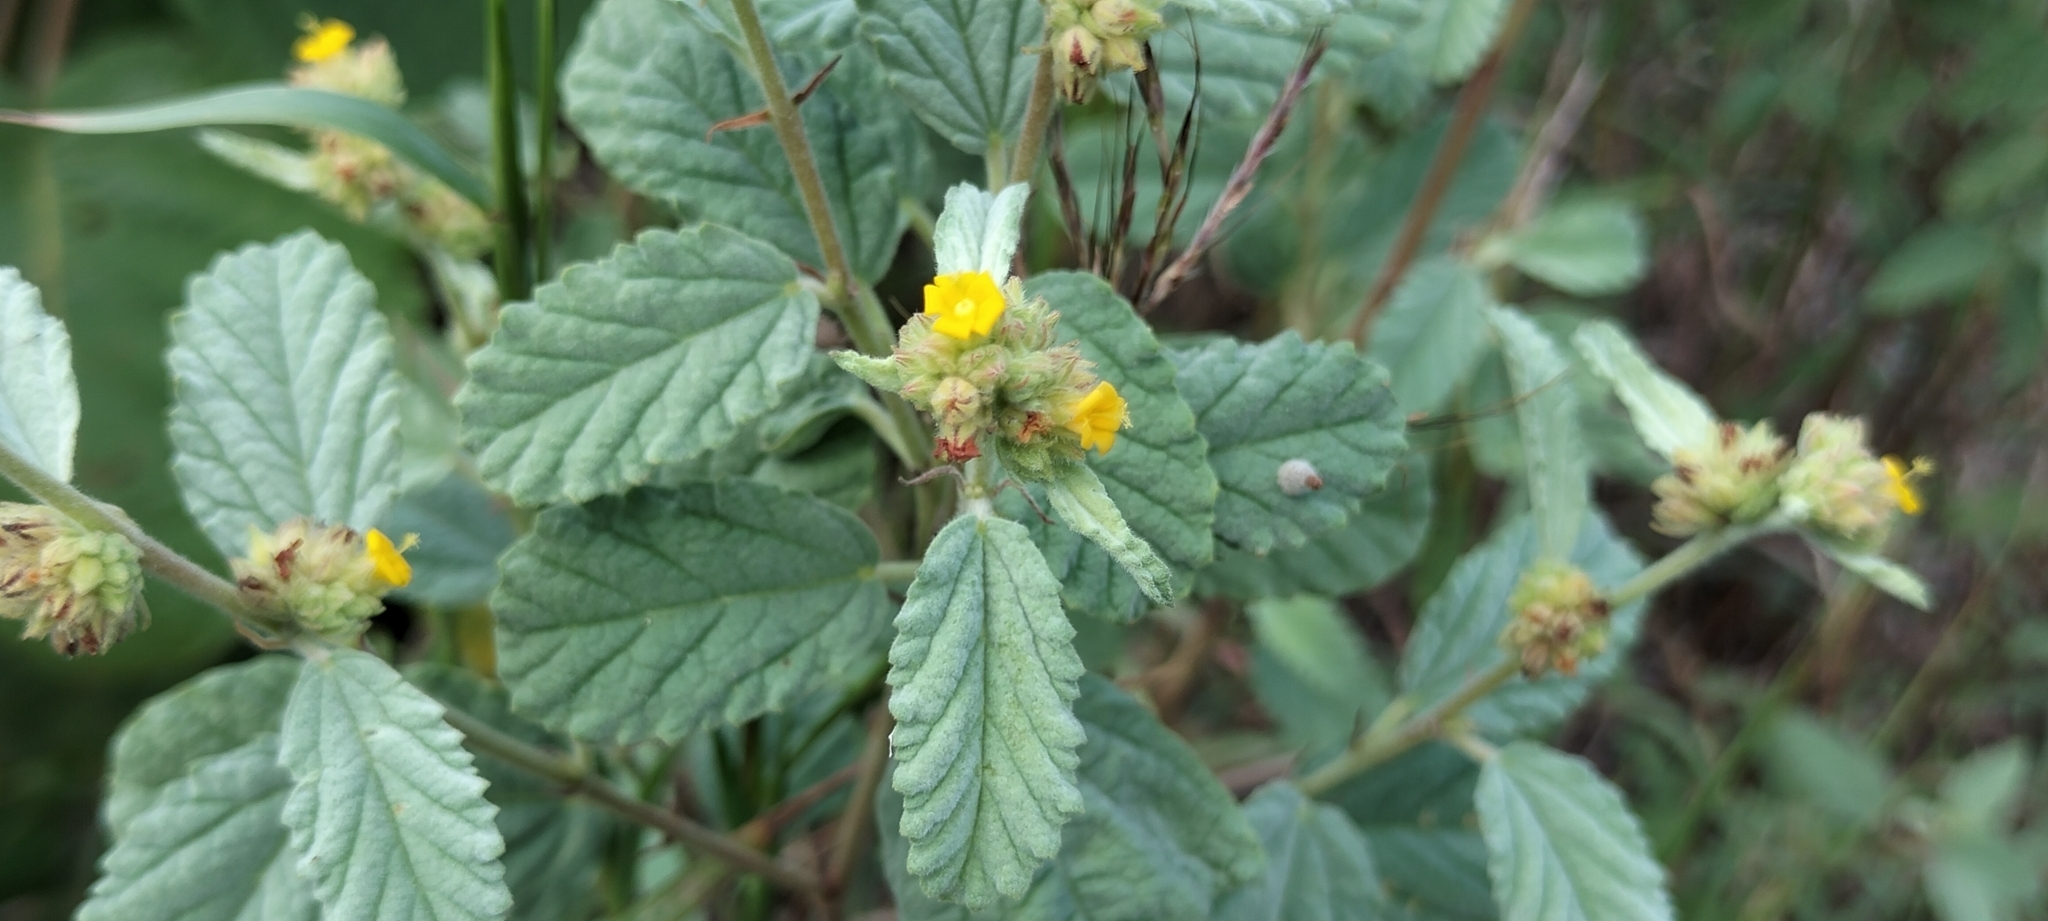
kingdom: Plantae
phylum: Tracheophyta
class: Magnoliopsida
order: Malvales
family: Malvaceae
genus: Waltheria
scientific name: Waltheria indica
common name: Leather-coat
